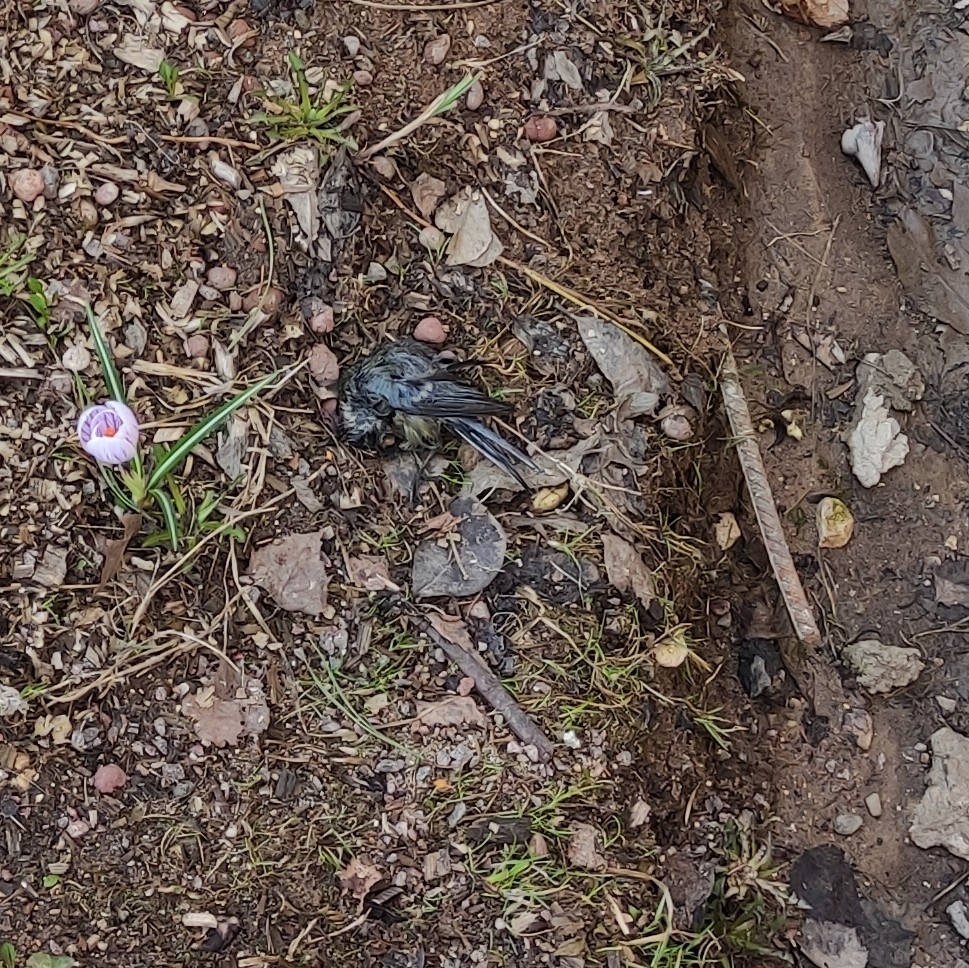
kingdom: Animalia
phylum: Chordata
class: Aves
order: Passeriformes
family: Paridae
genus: Parus
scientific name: Parus major
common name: Great tit
